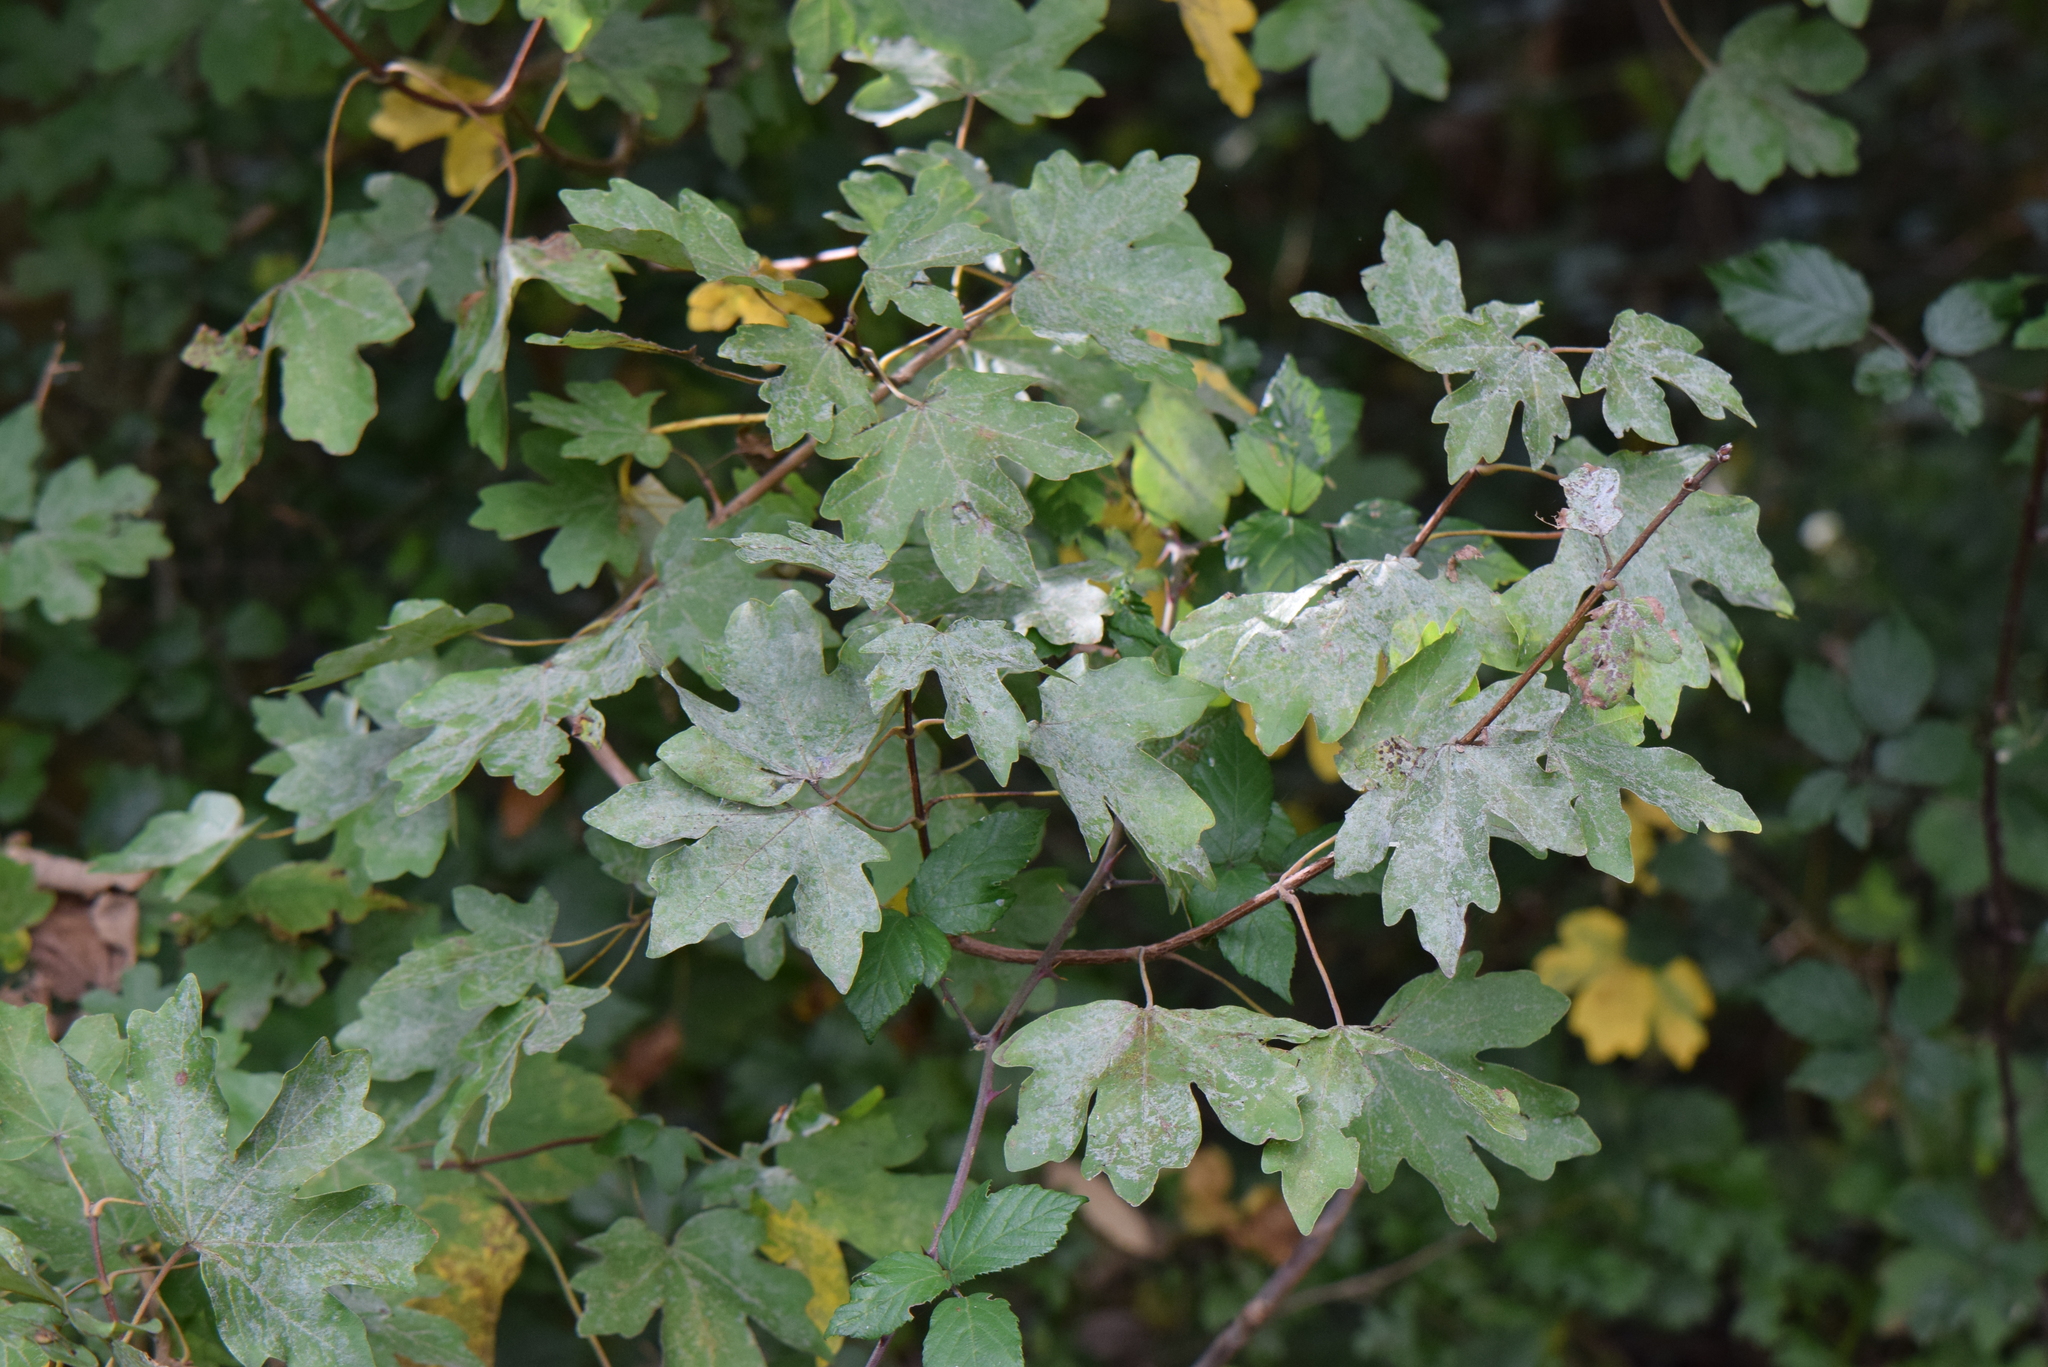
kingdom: Plantae
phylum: Tracheophyta
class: Magnoliopsida
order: Sapindales
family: Sapindaceae
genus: Acer
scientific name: Acer campestre
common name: Field maple
